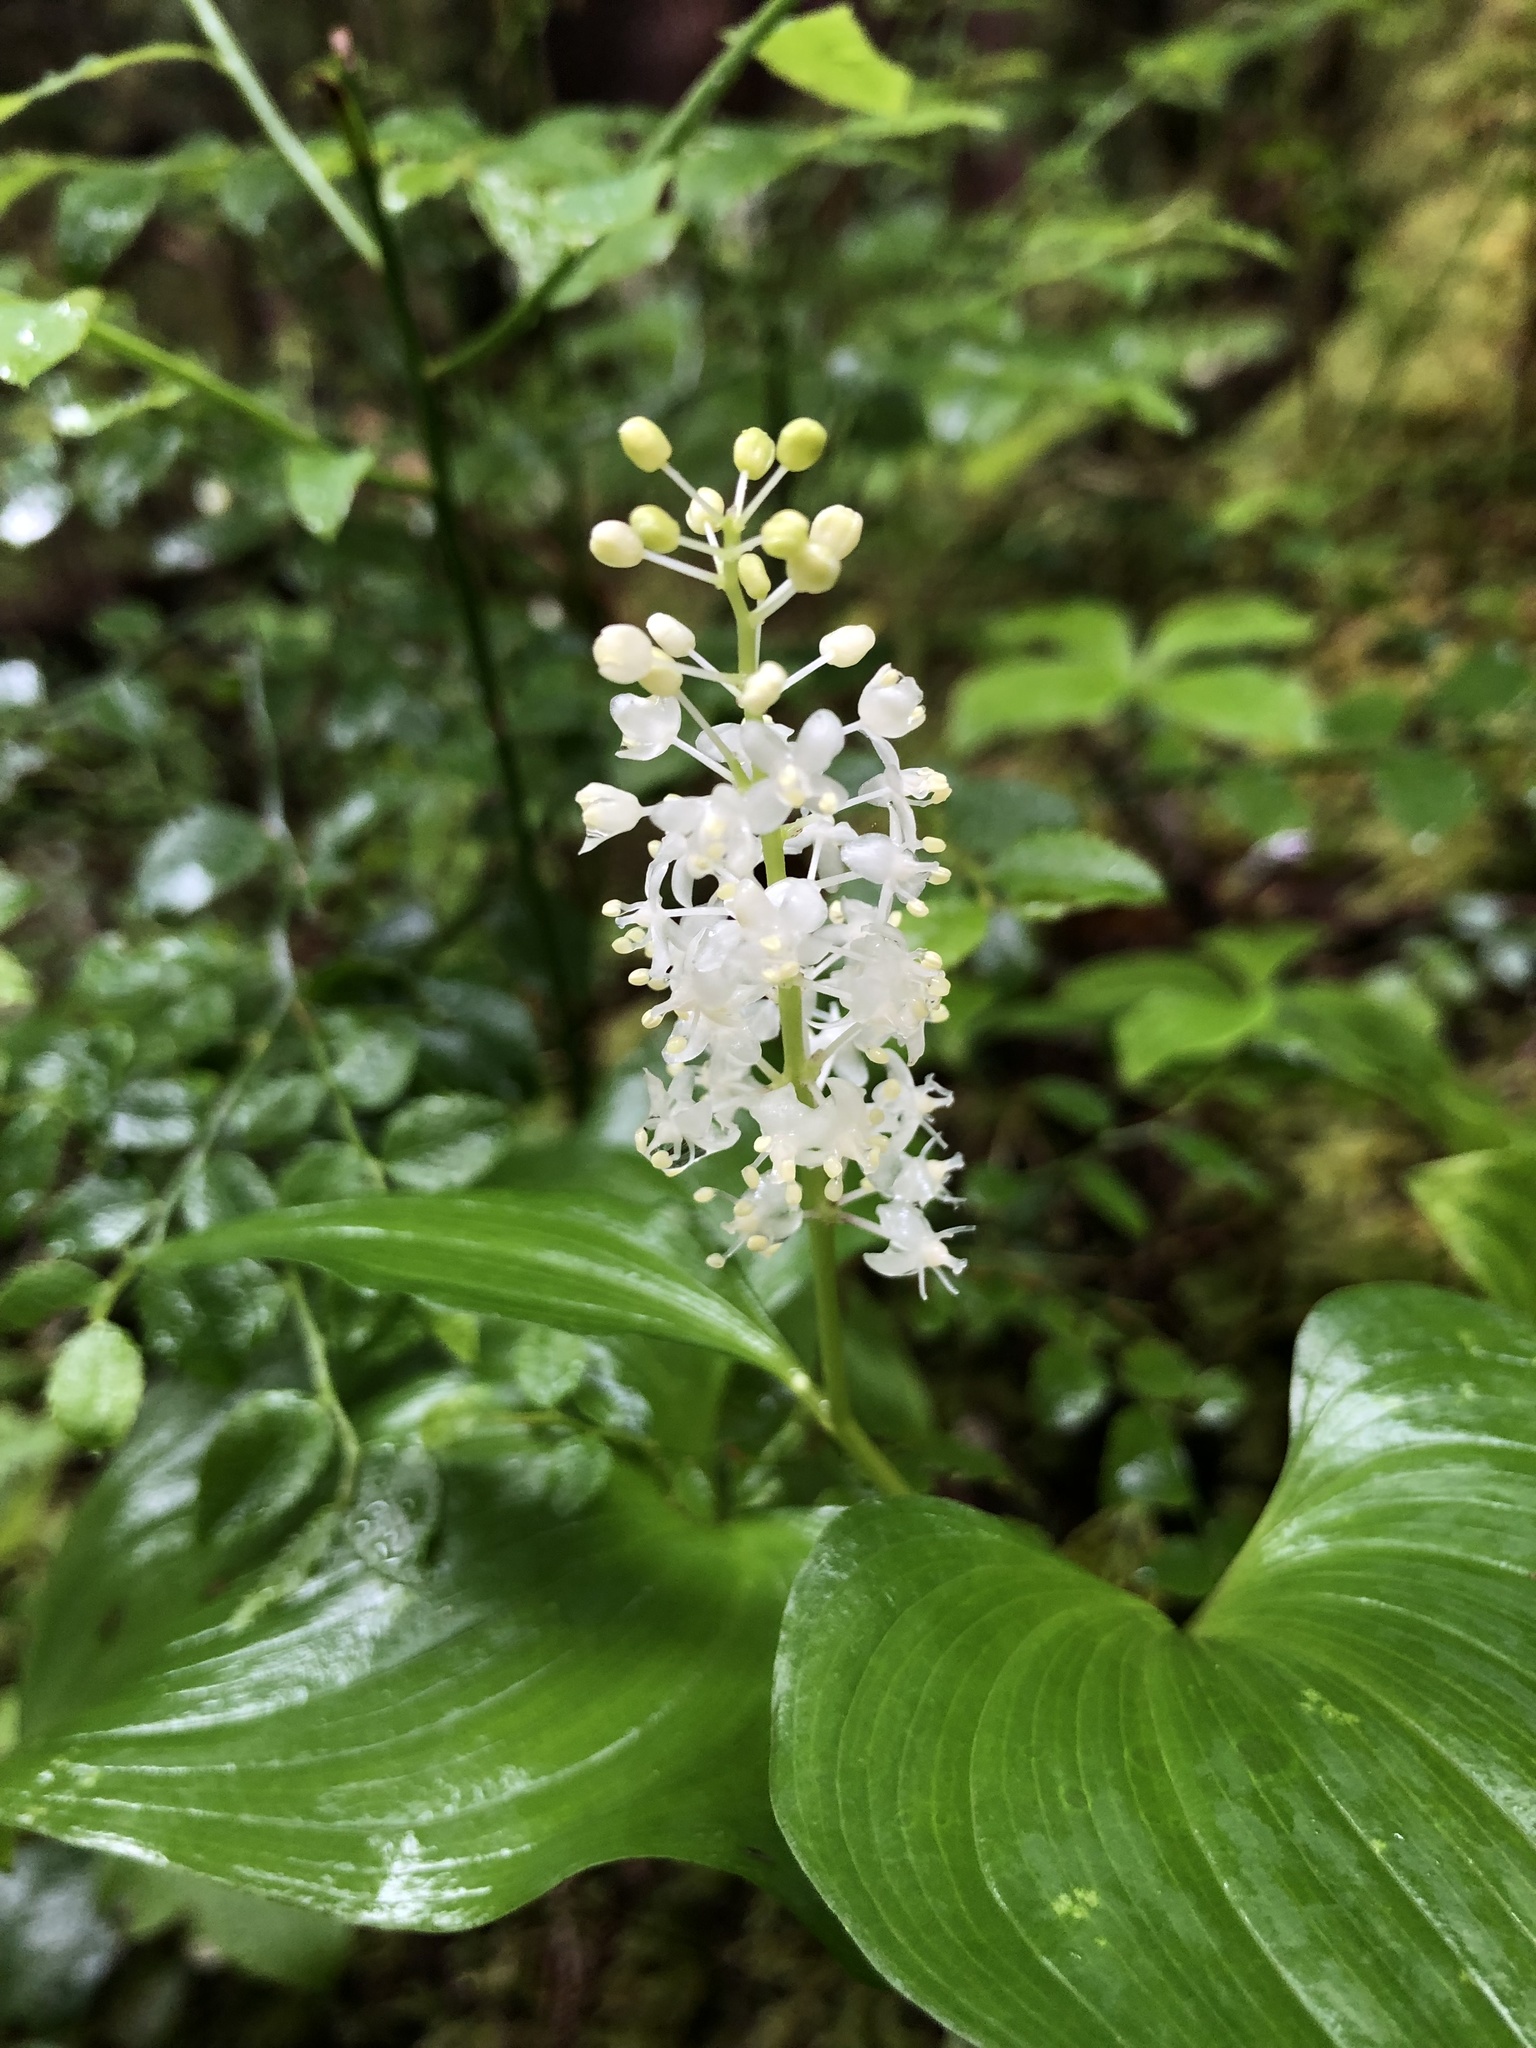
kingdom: Plantae
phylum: Tracheophyta
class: Liliopsida
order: Asparagales
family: Asparagaceae
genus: Maianthemum
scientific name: Maianthemum dilatatum
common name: False lily-of-the-valley
